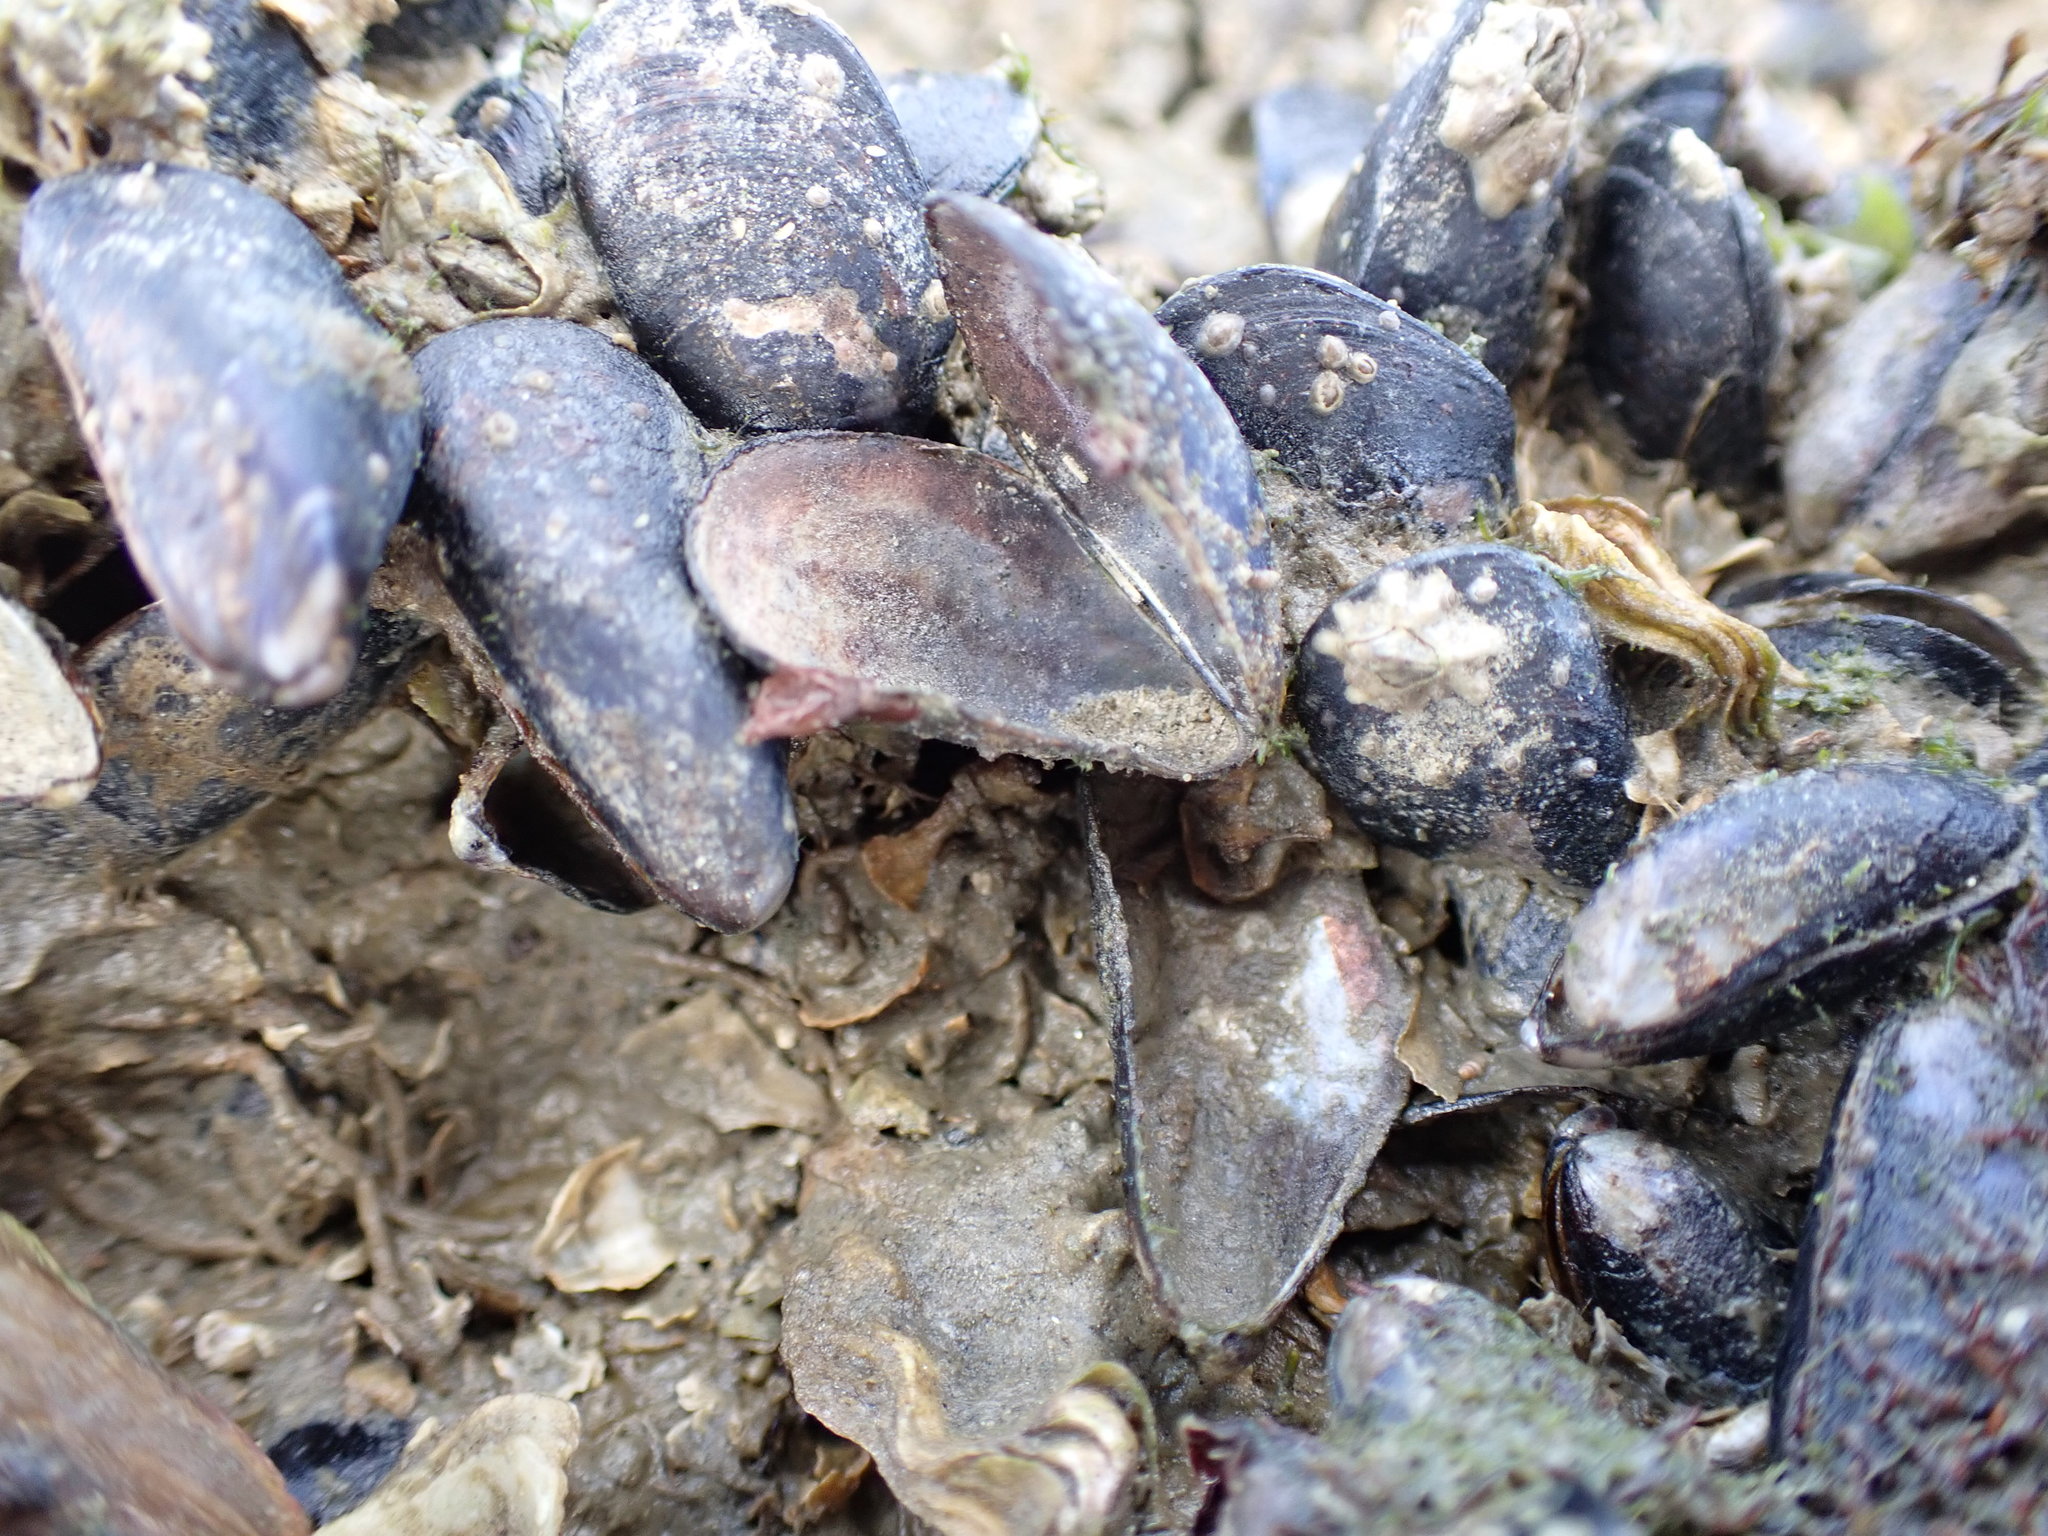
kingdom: Animalia
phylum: Mollusca
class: Bivalvia
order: Mytilida
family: Mytilidae
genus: Xenostrobus
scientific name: Xenostrobus neozelanicus
